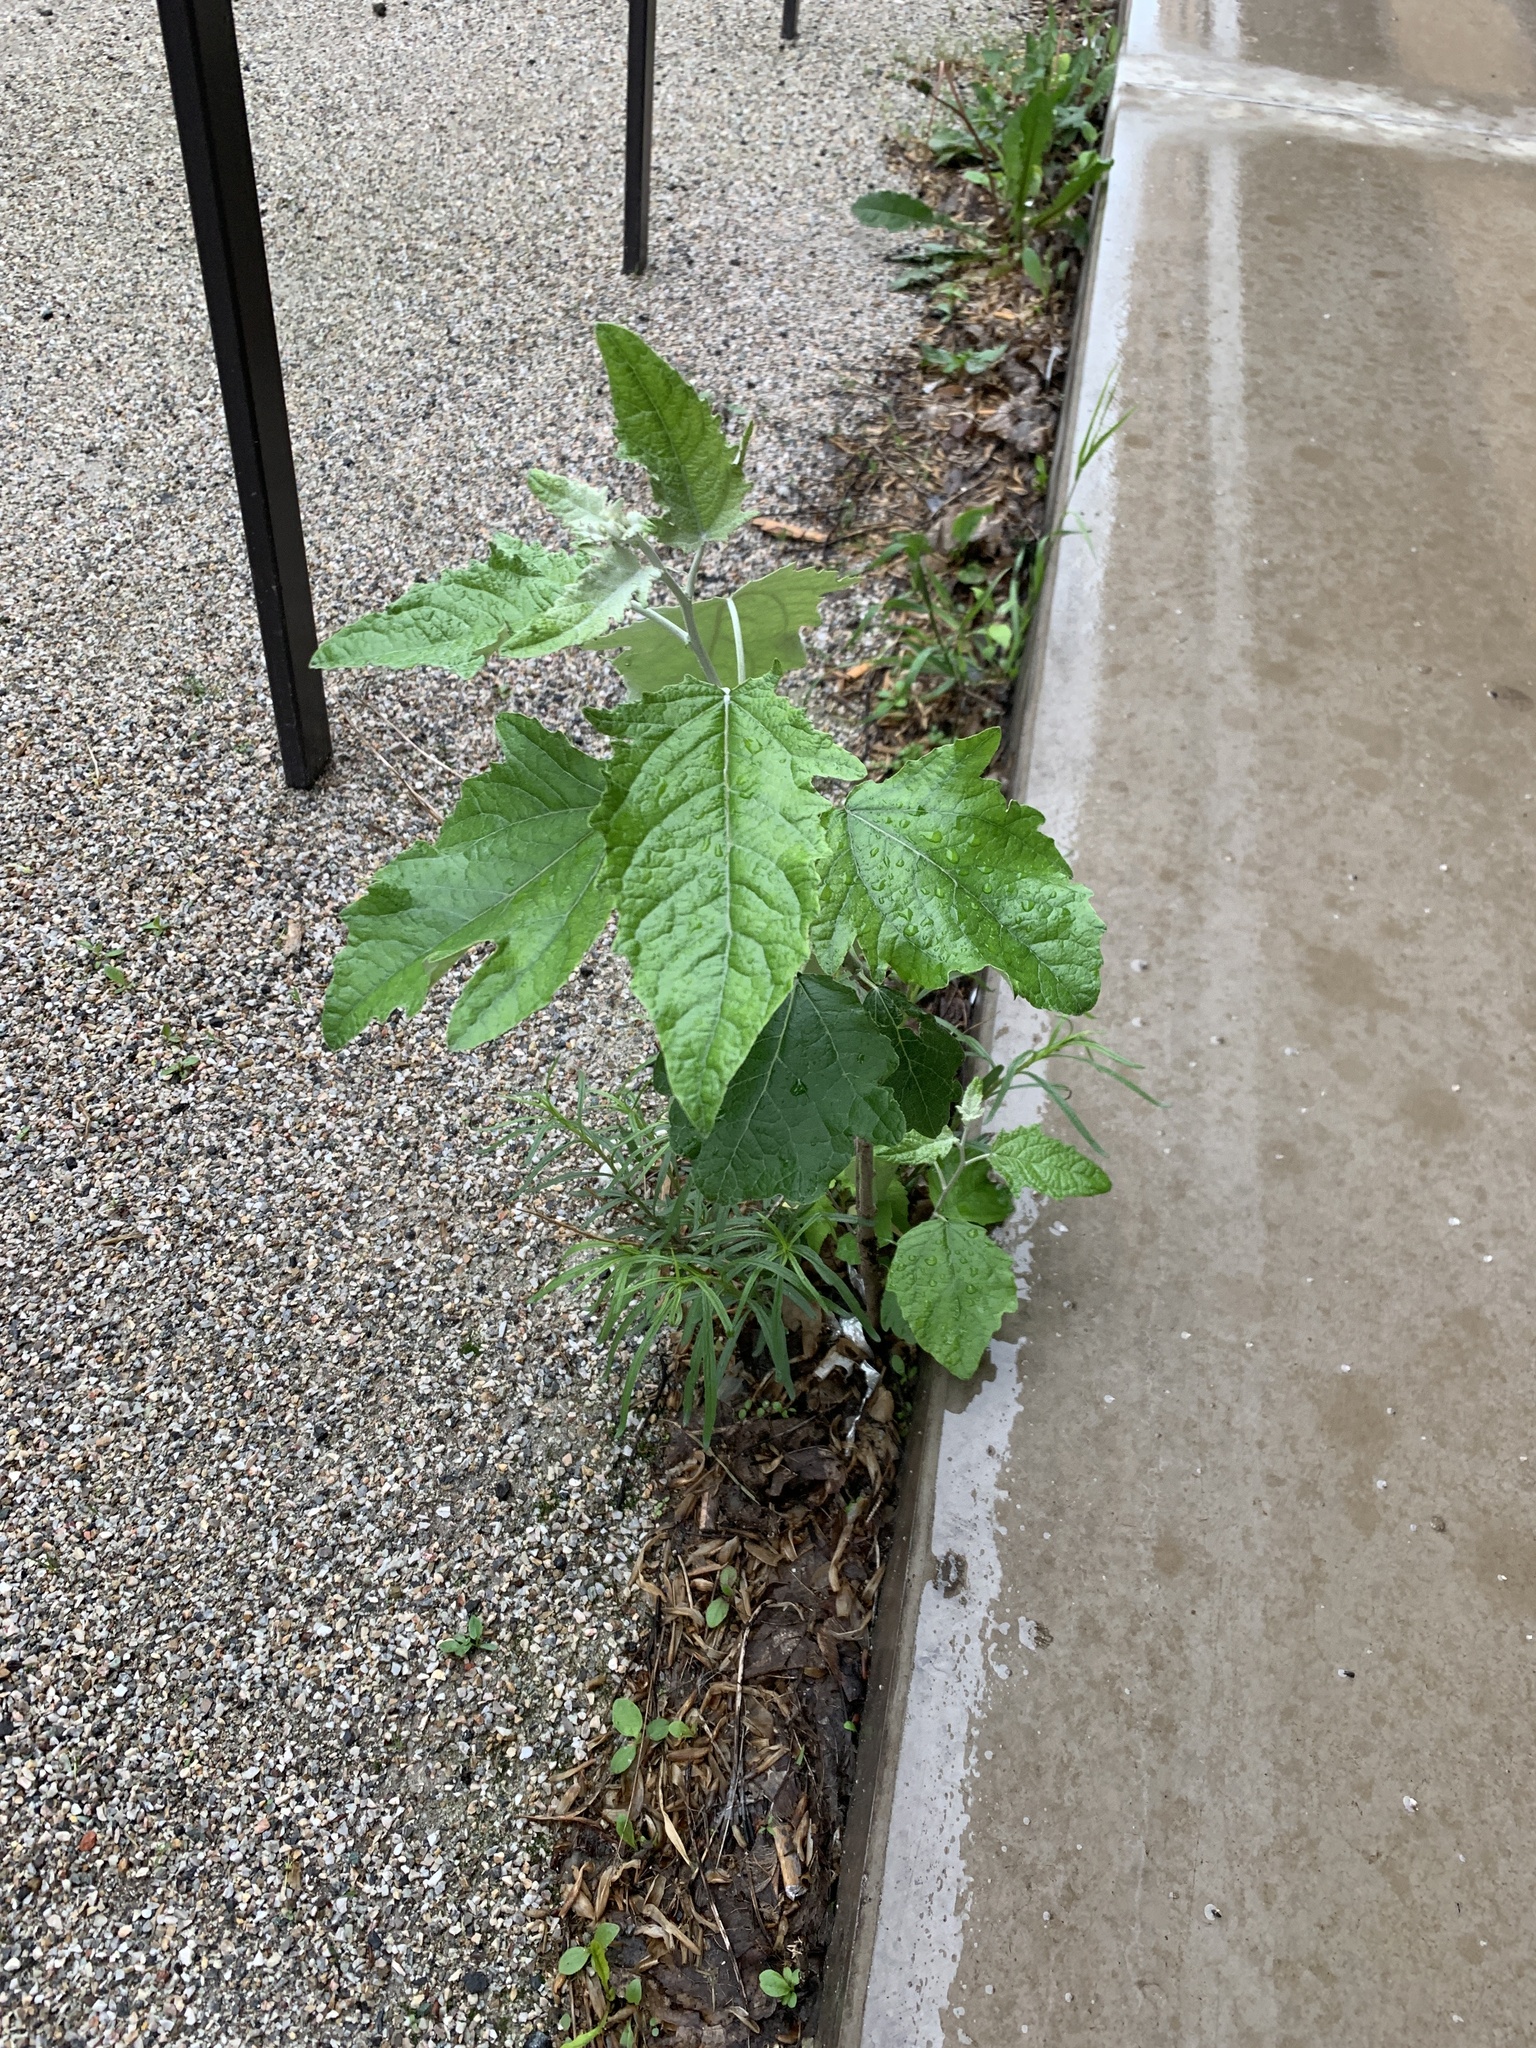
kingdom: Plantae
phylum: Tracheophyta
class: Magnoliopsida
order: Malpighiales
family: Salicaceae
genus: Populus
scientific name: Populus alba
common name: White poplar
